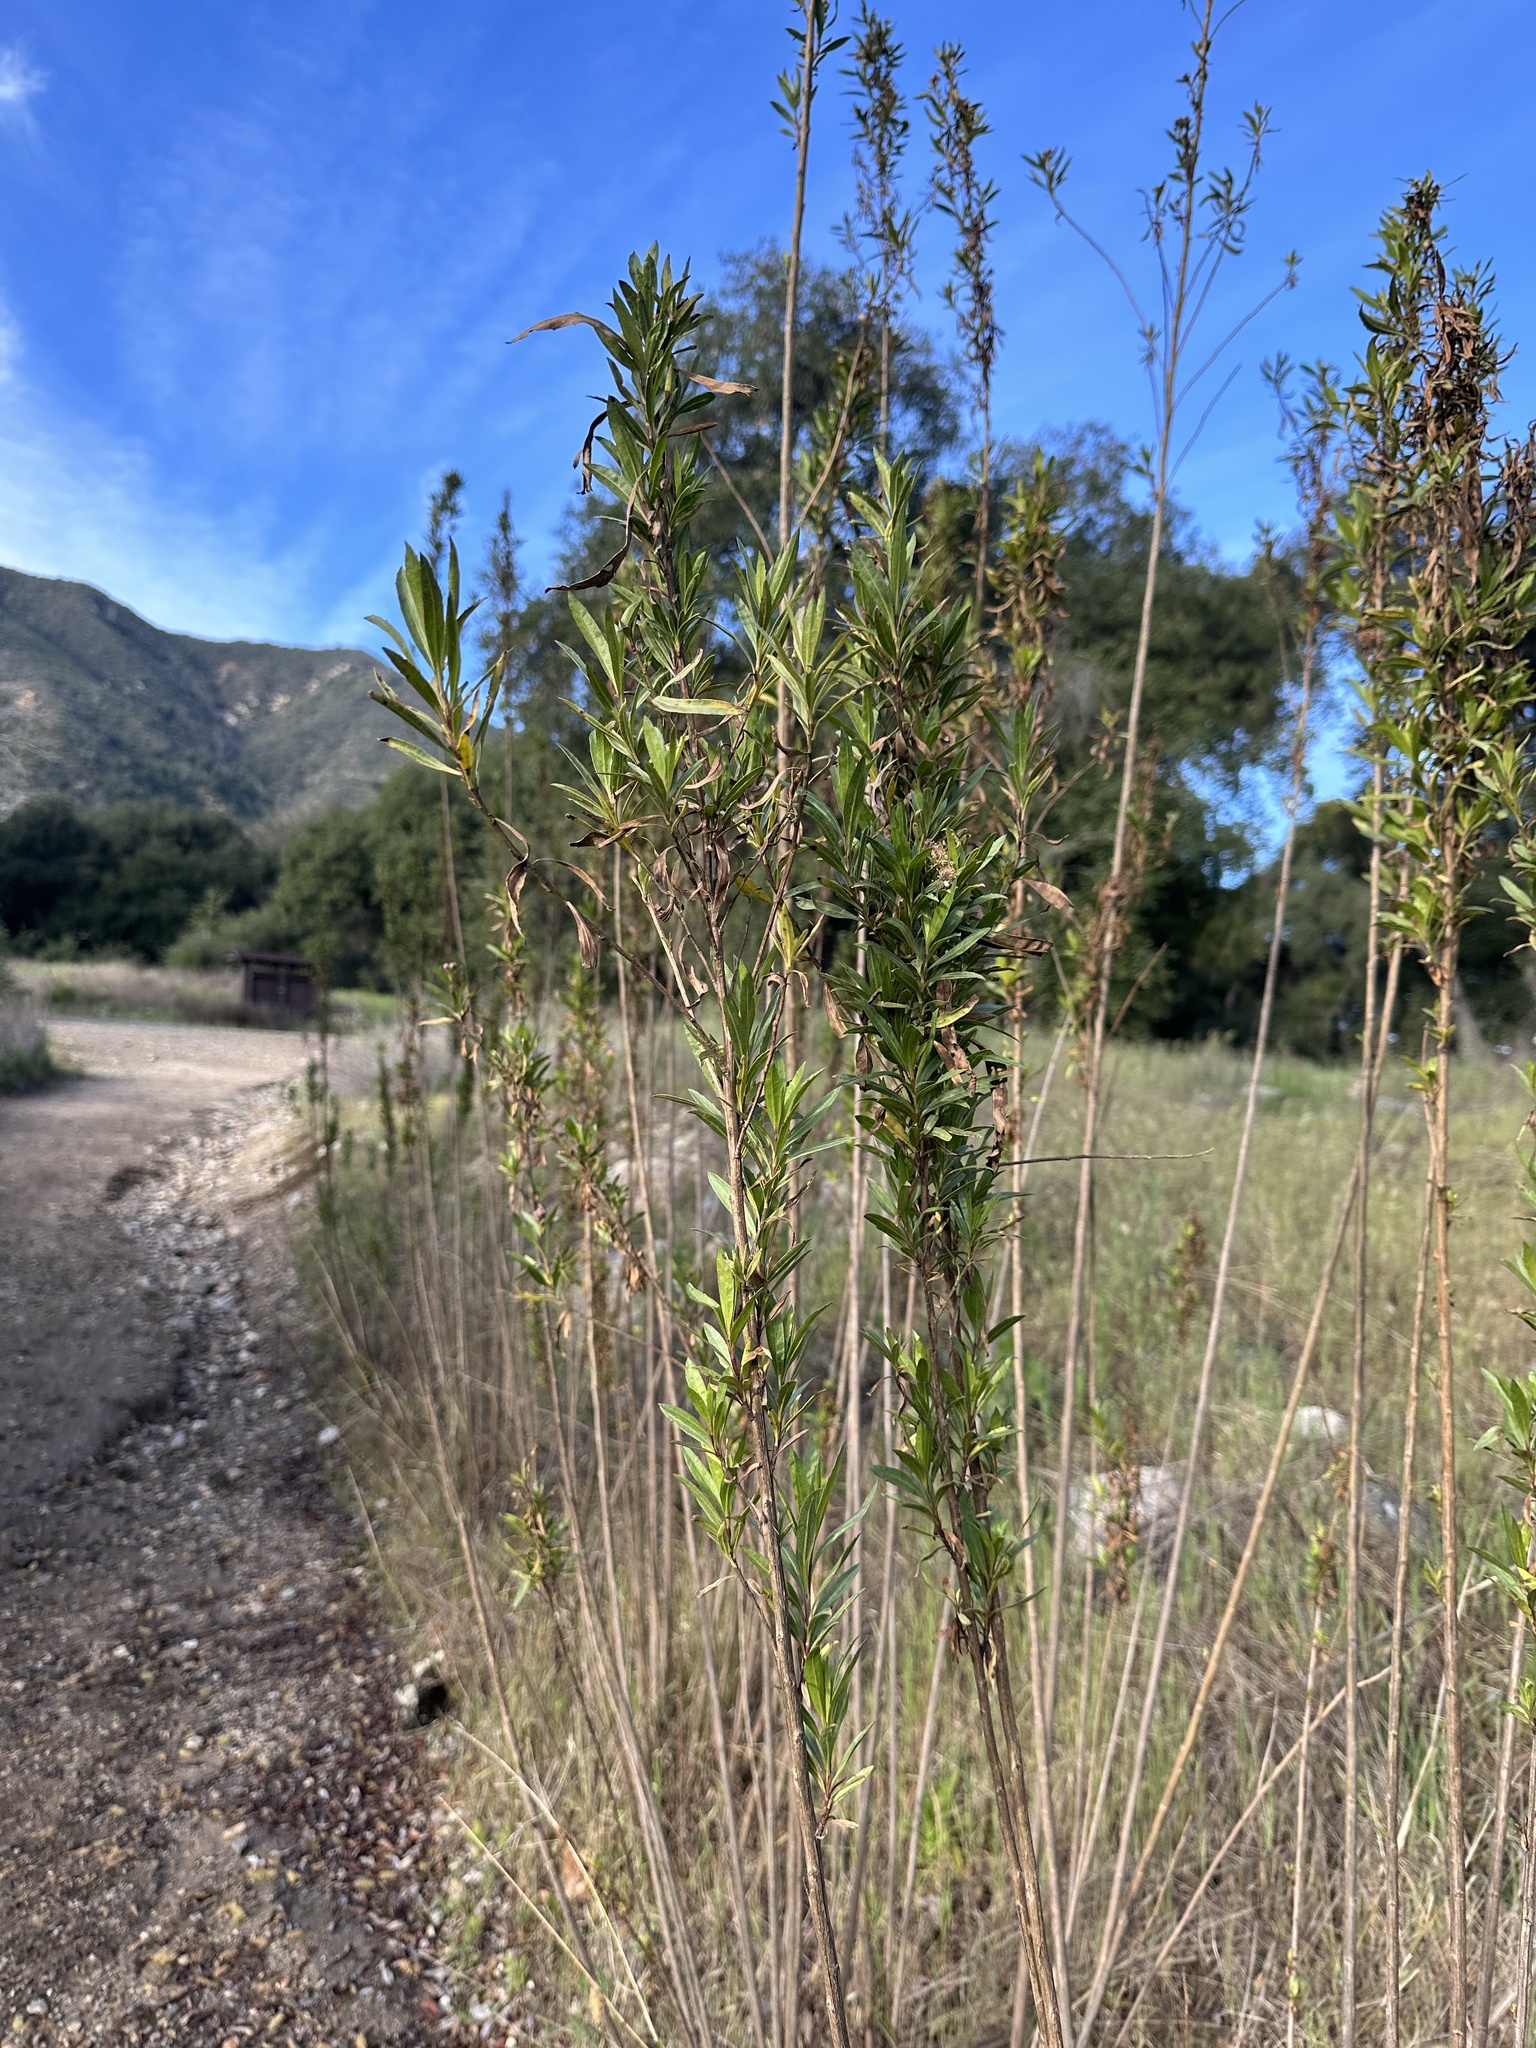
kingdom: Plantae
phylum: Tracheophyta
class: Magnoliopsida
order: Asterales
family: Asteraceae
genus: Baccharis
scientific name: Baccharis salicifolia
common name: Sticky baccharis
